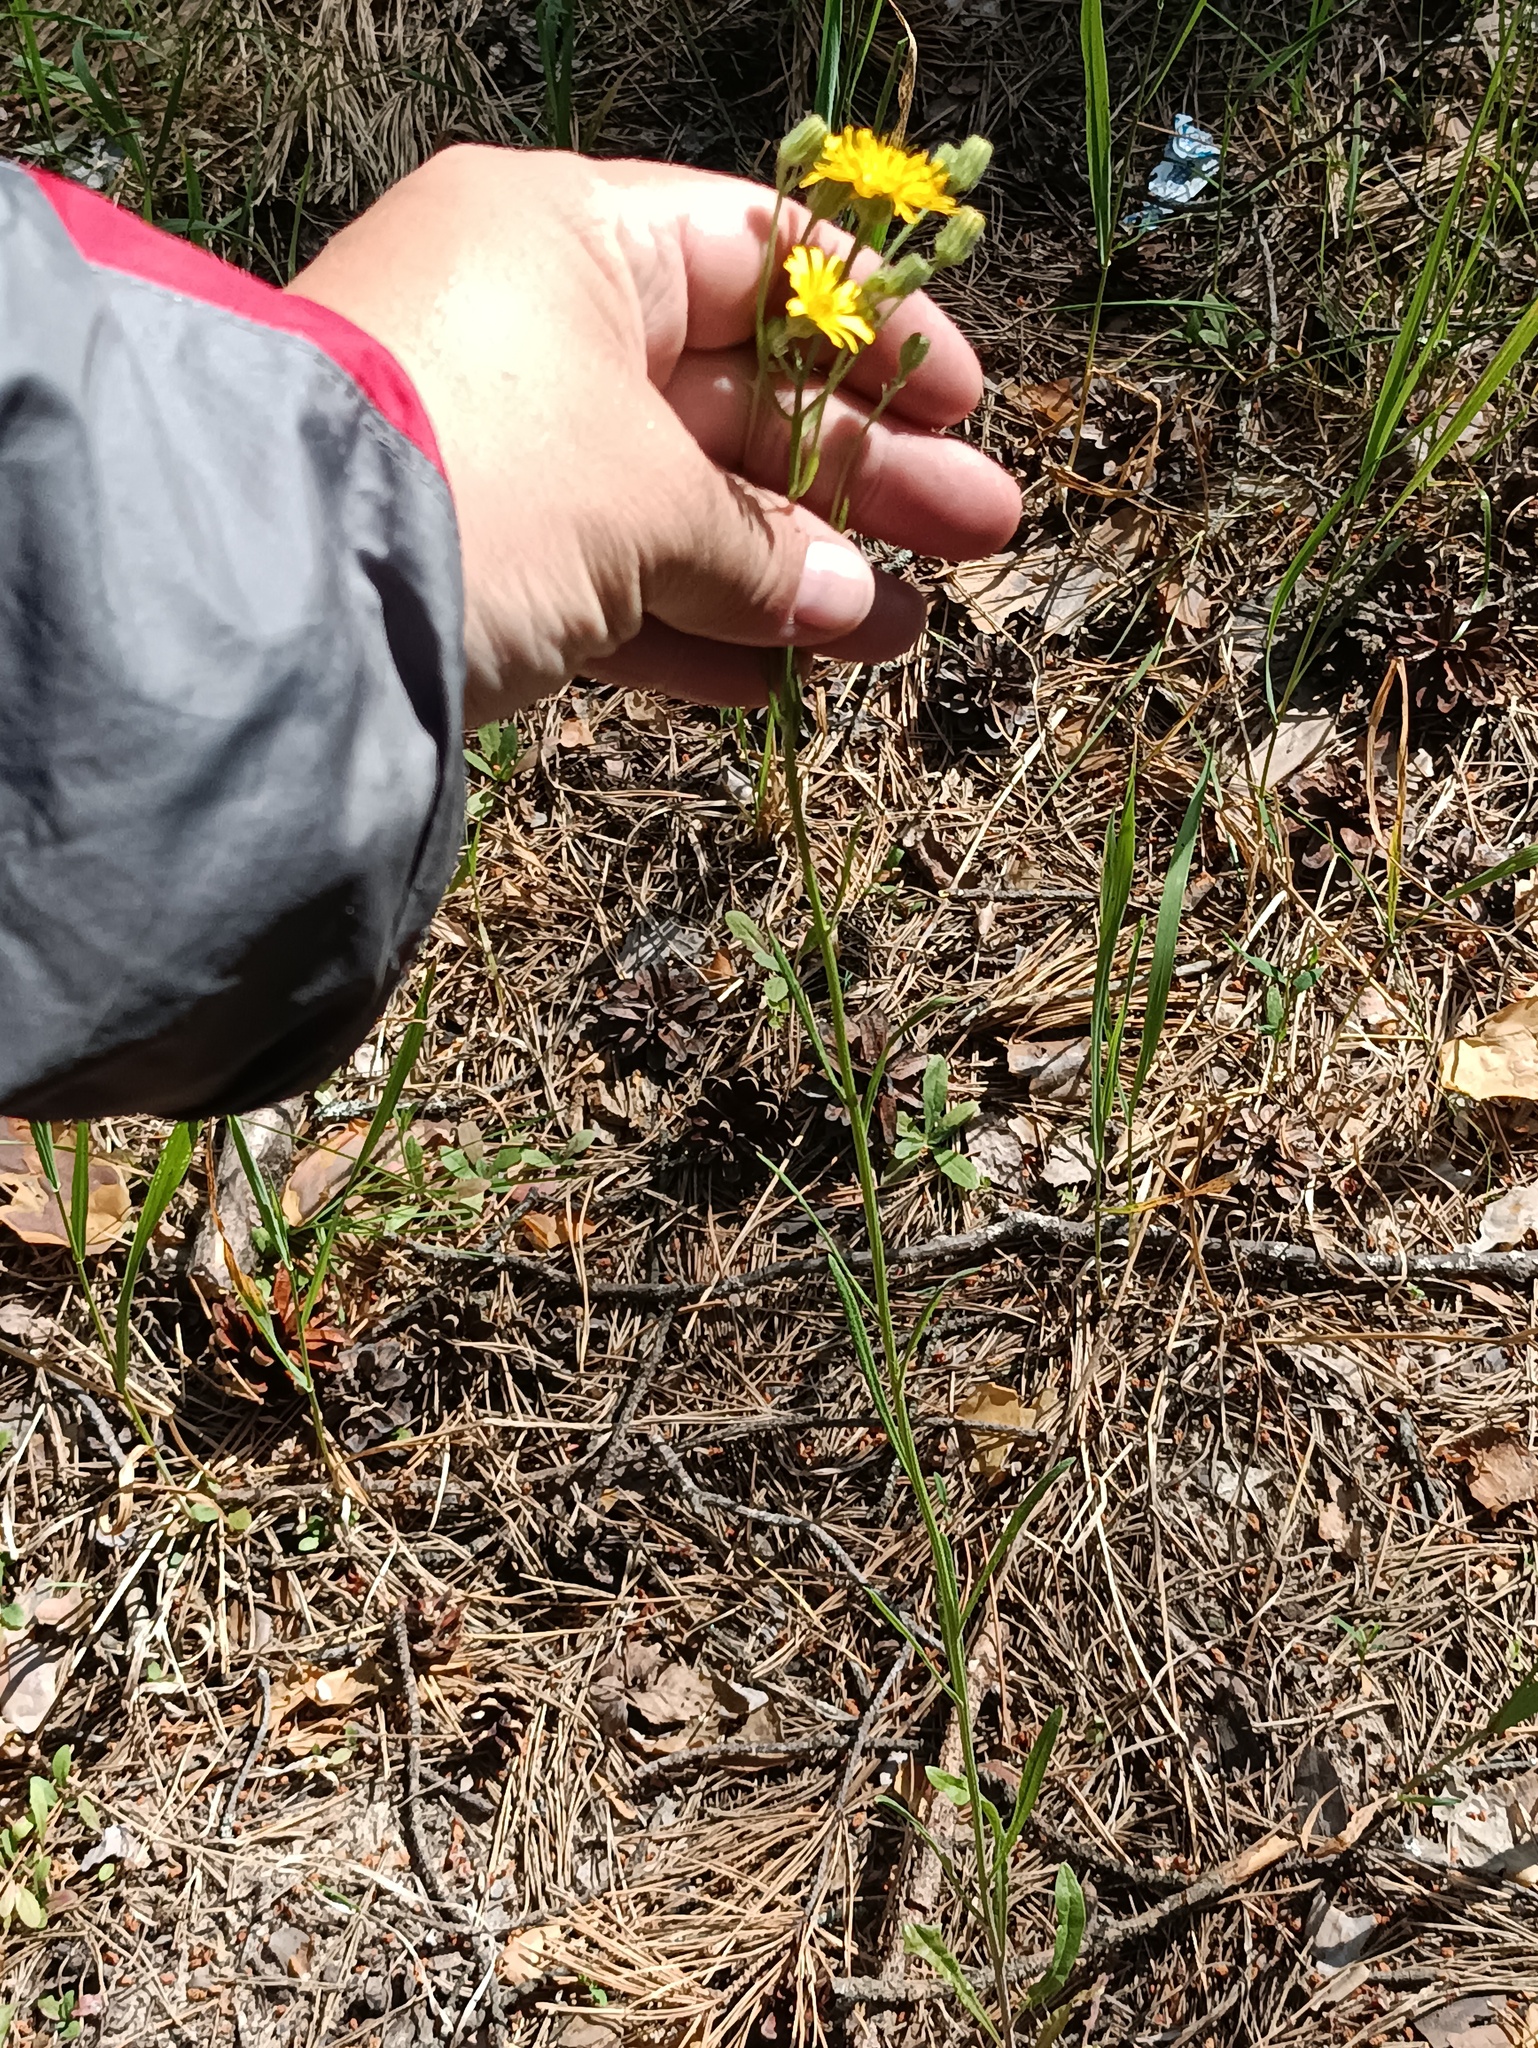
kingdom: Plantae
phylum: Tracheophyta
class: Magnoliopsida
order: Asterales
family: Asteraceae
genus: Crepis
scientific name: Crepis tectorum
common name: Narrow-leaved hawk's-beard
